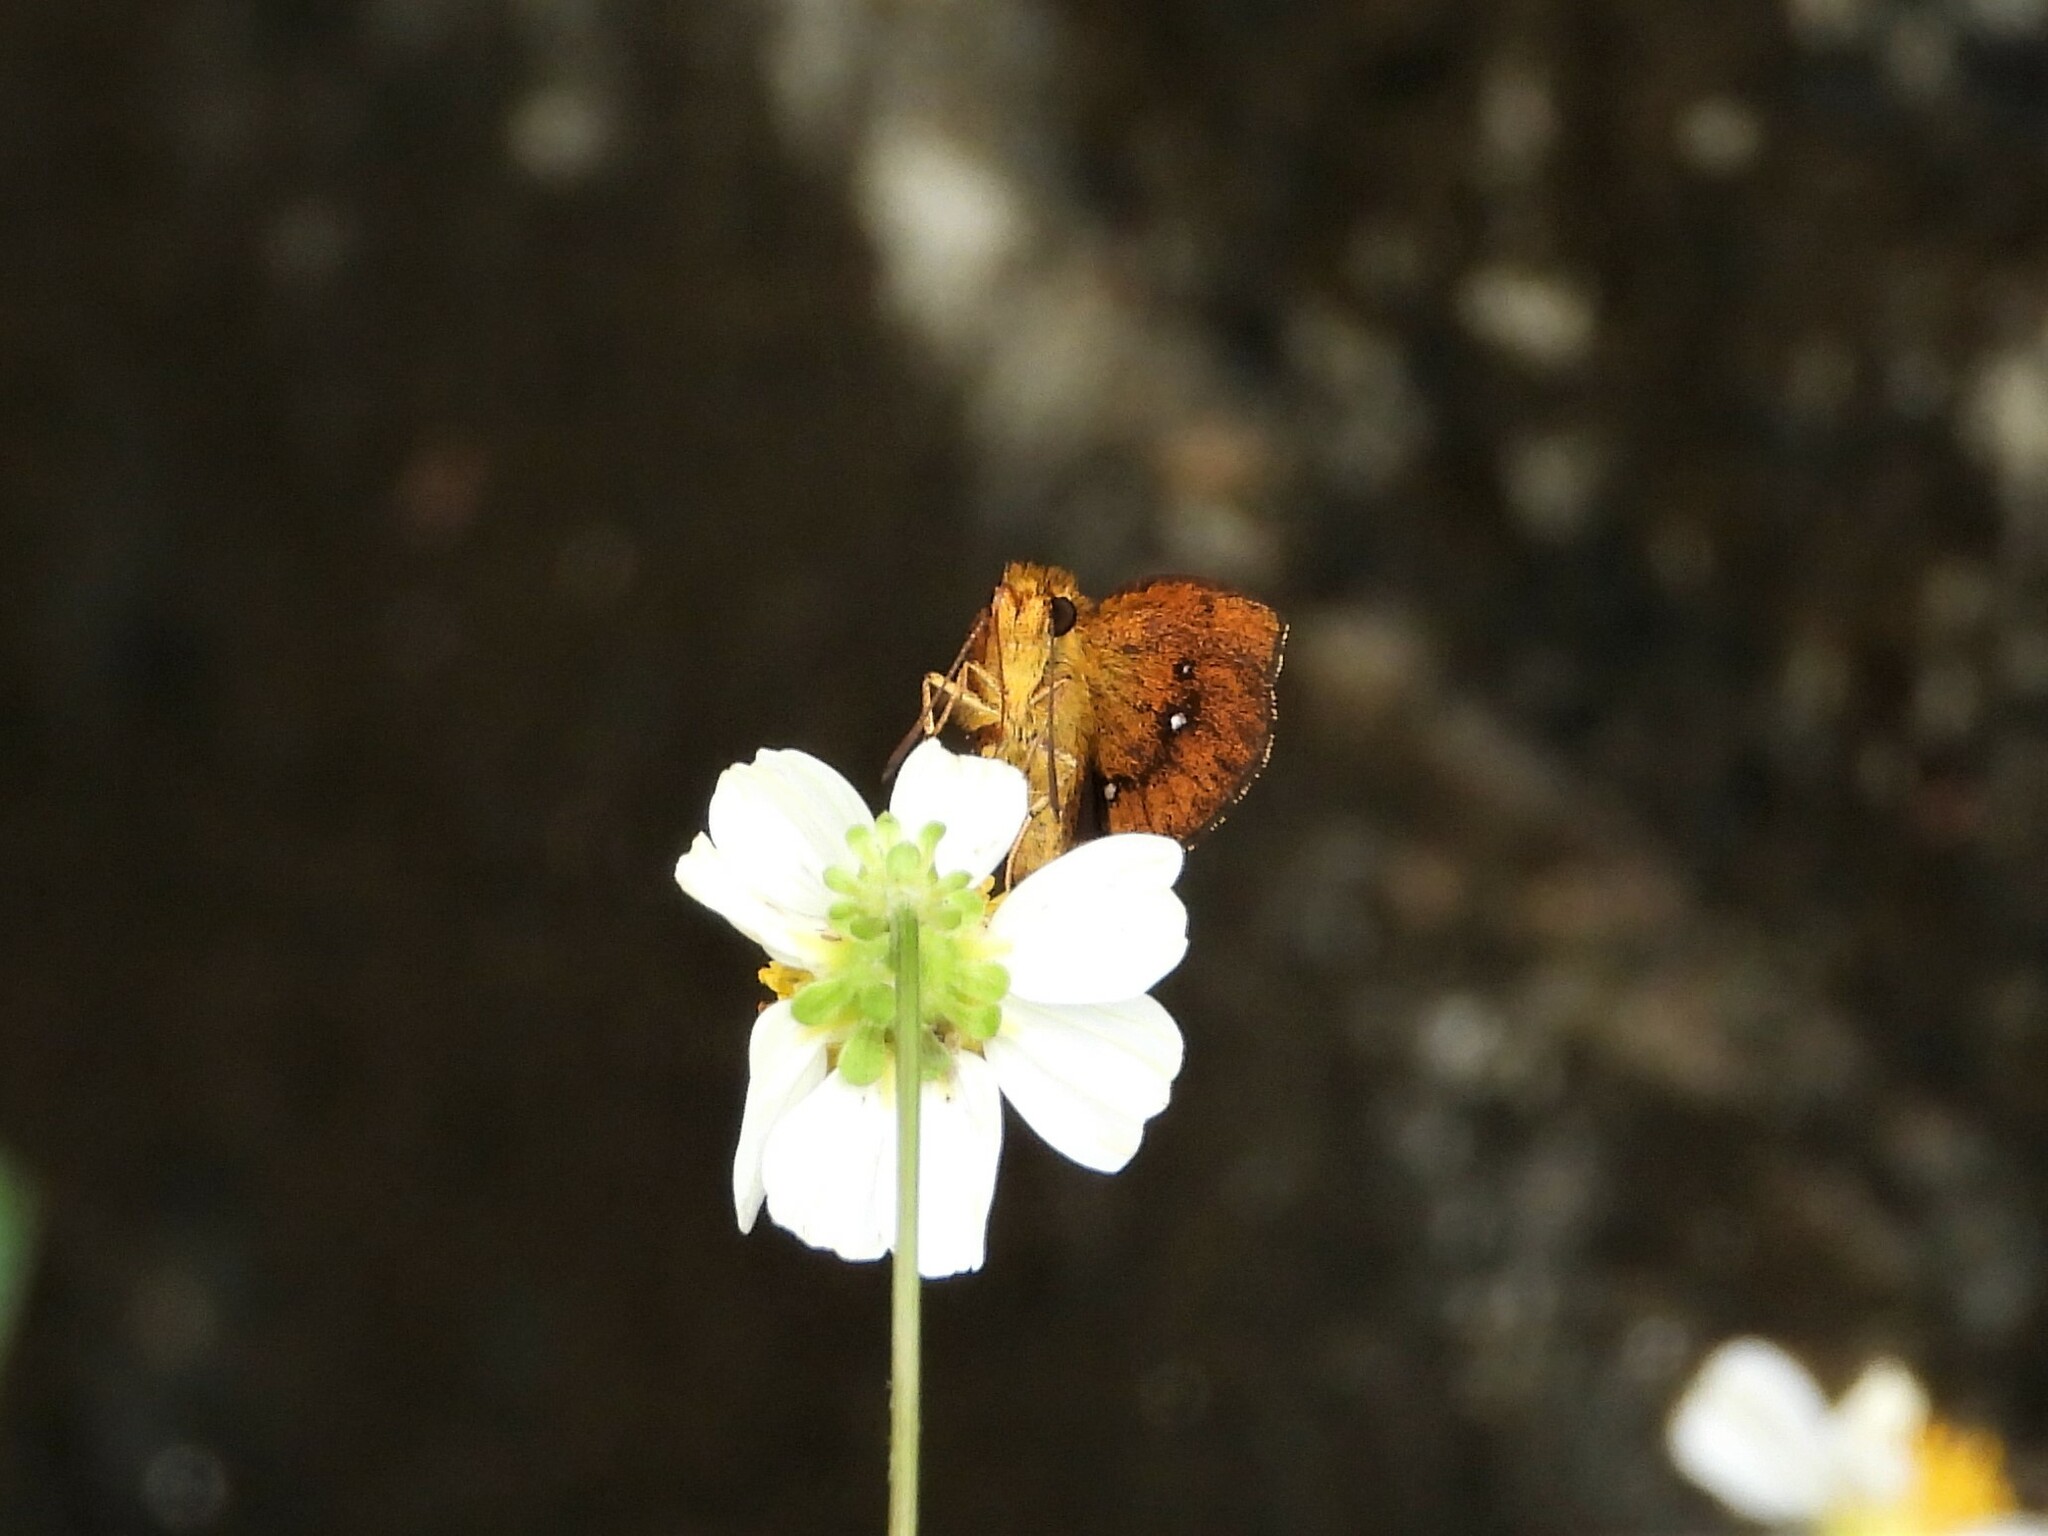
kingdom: Animalia
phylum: Arthropoda
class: Insecta
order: Lepidoptera
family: Hesperiidae
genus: Iambrix
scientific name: Iambrix salsala
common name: Chestnut bob
